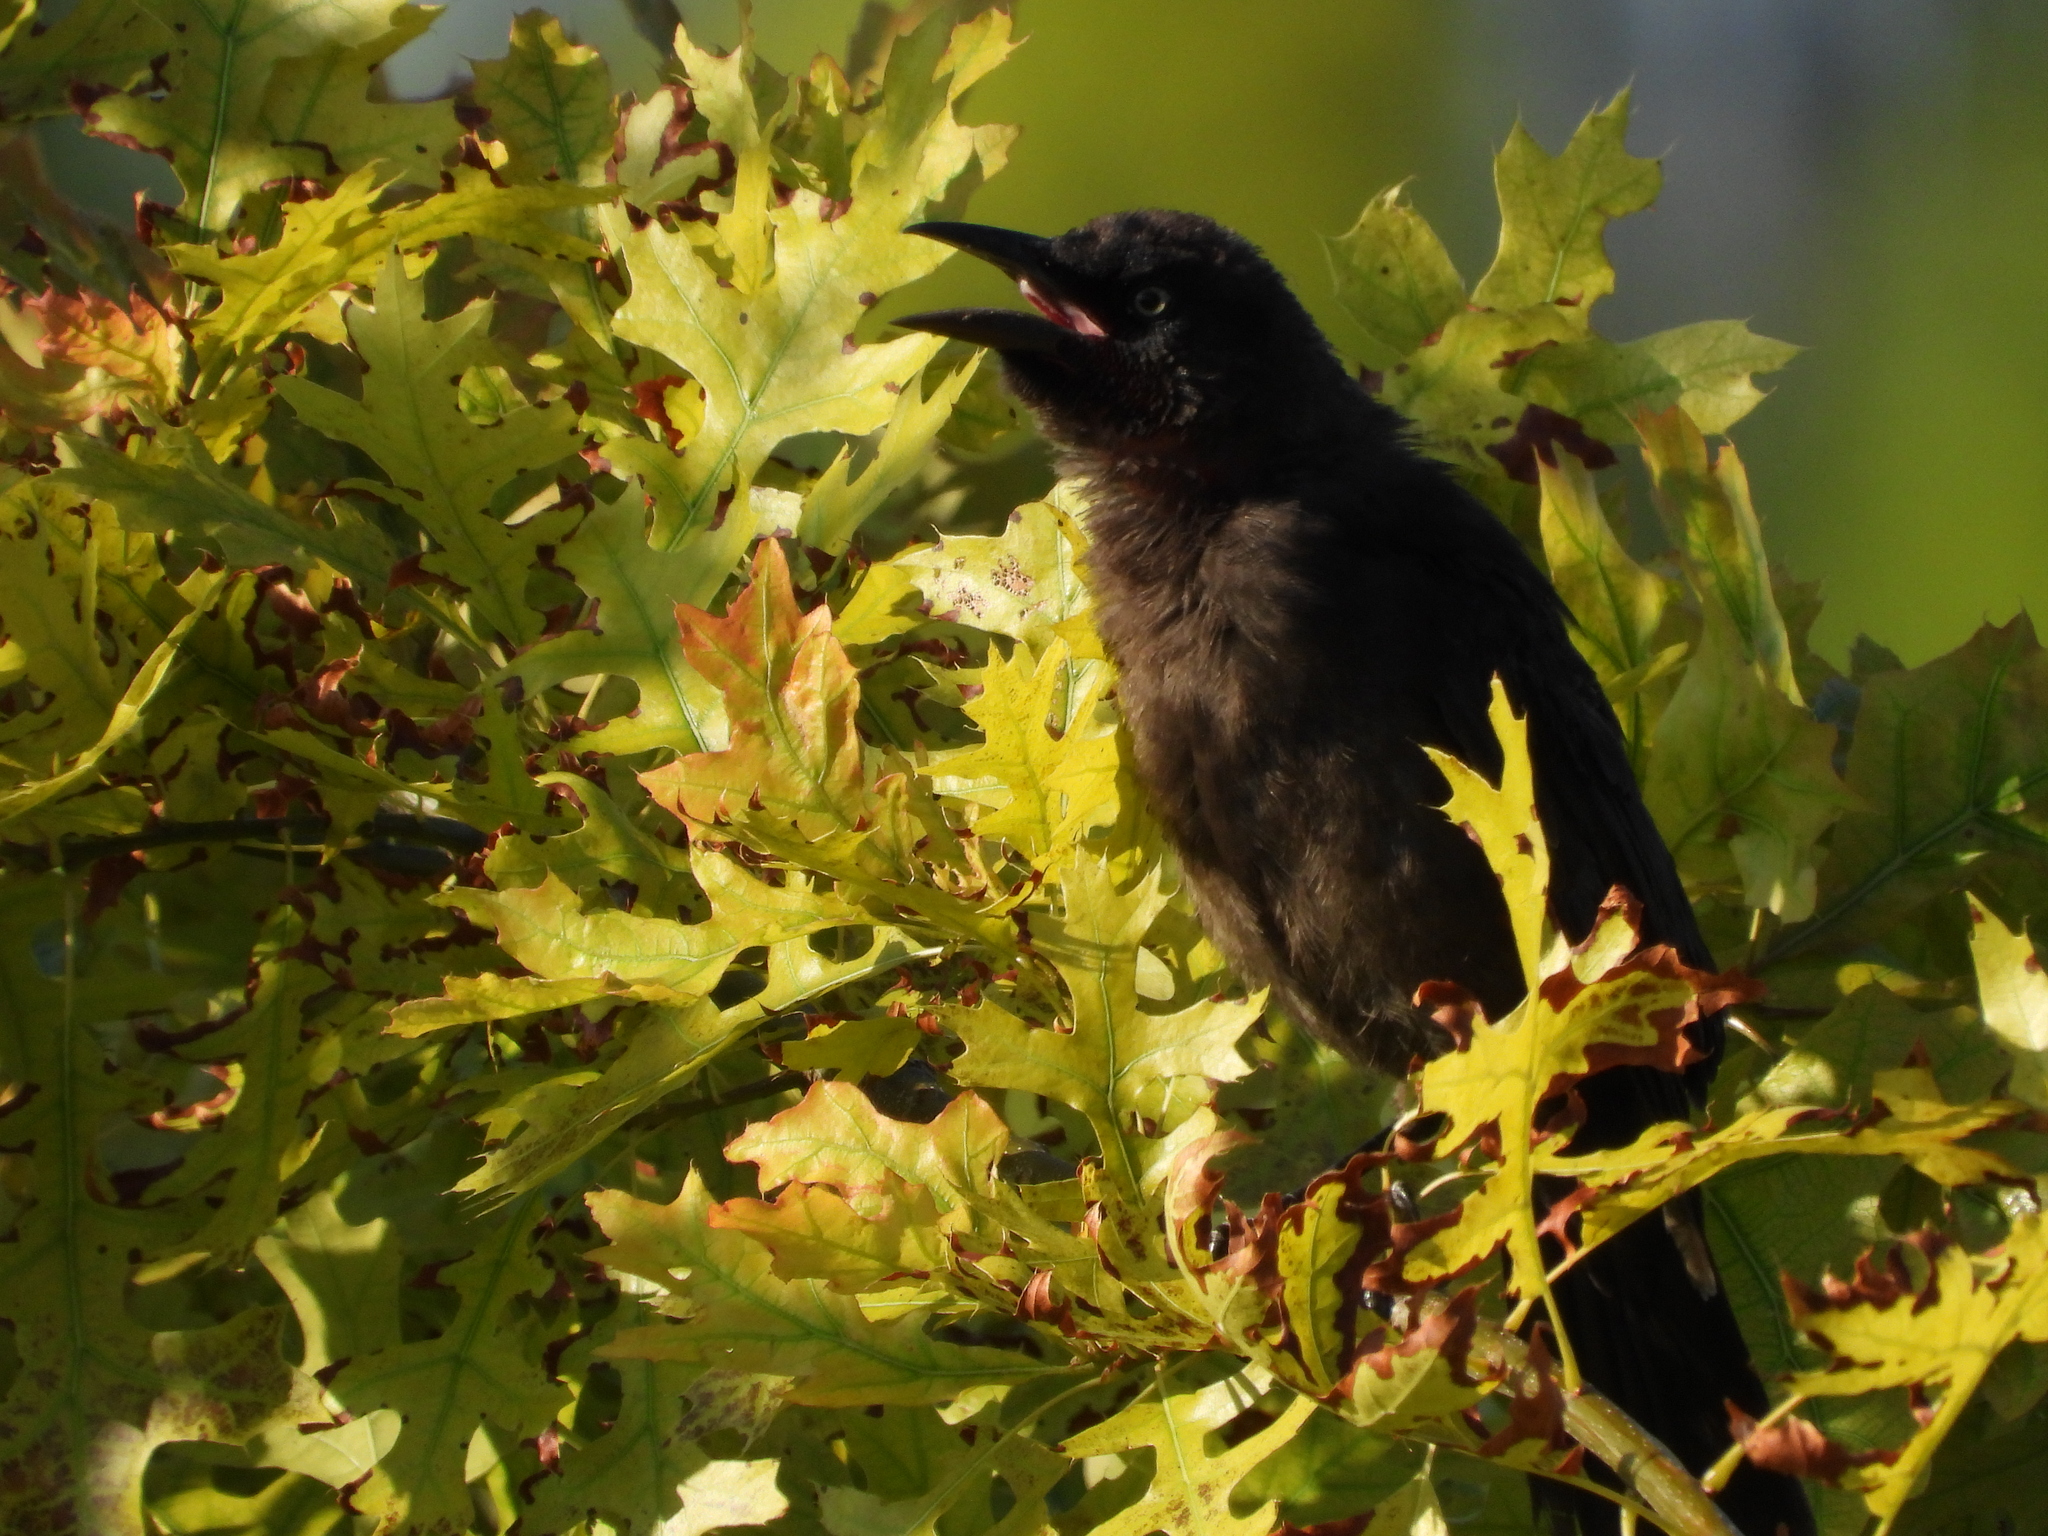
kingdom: Animalia
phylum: Chordata
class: Aves
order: Passeriformes
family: Icteridae
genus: Quiscalus
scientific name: Quiscalus quiscula
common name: Common grackle
